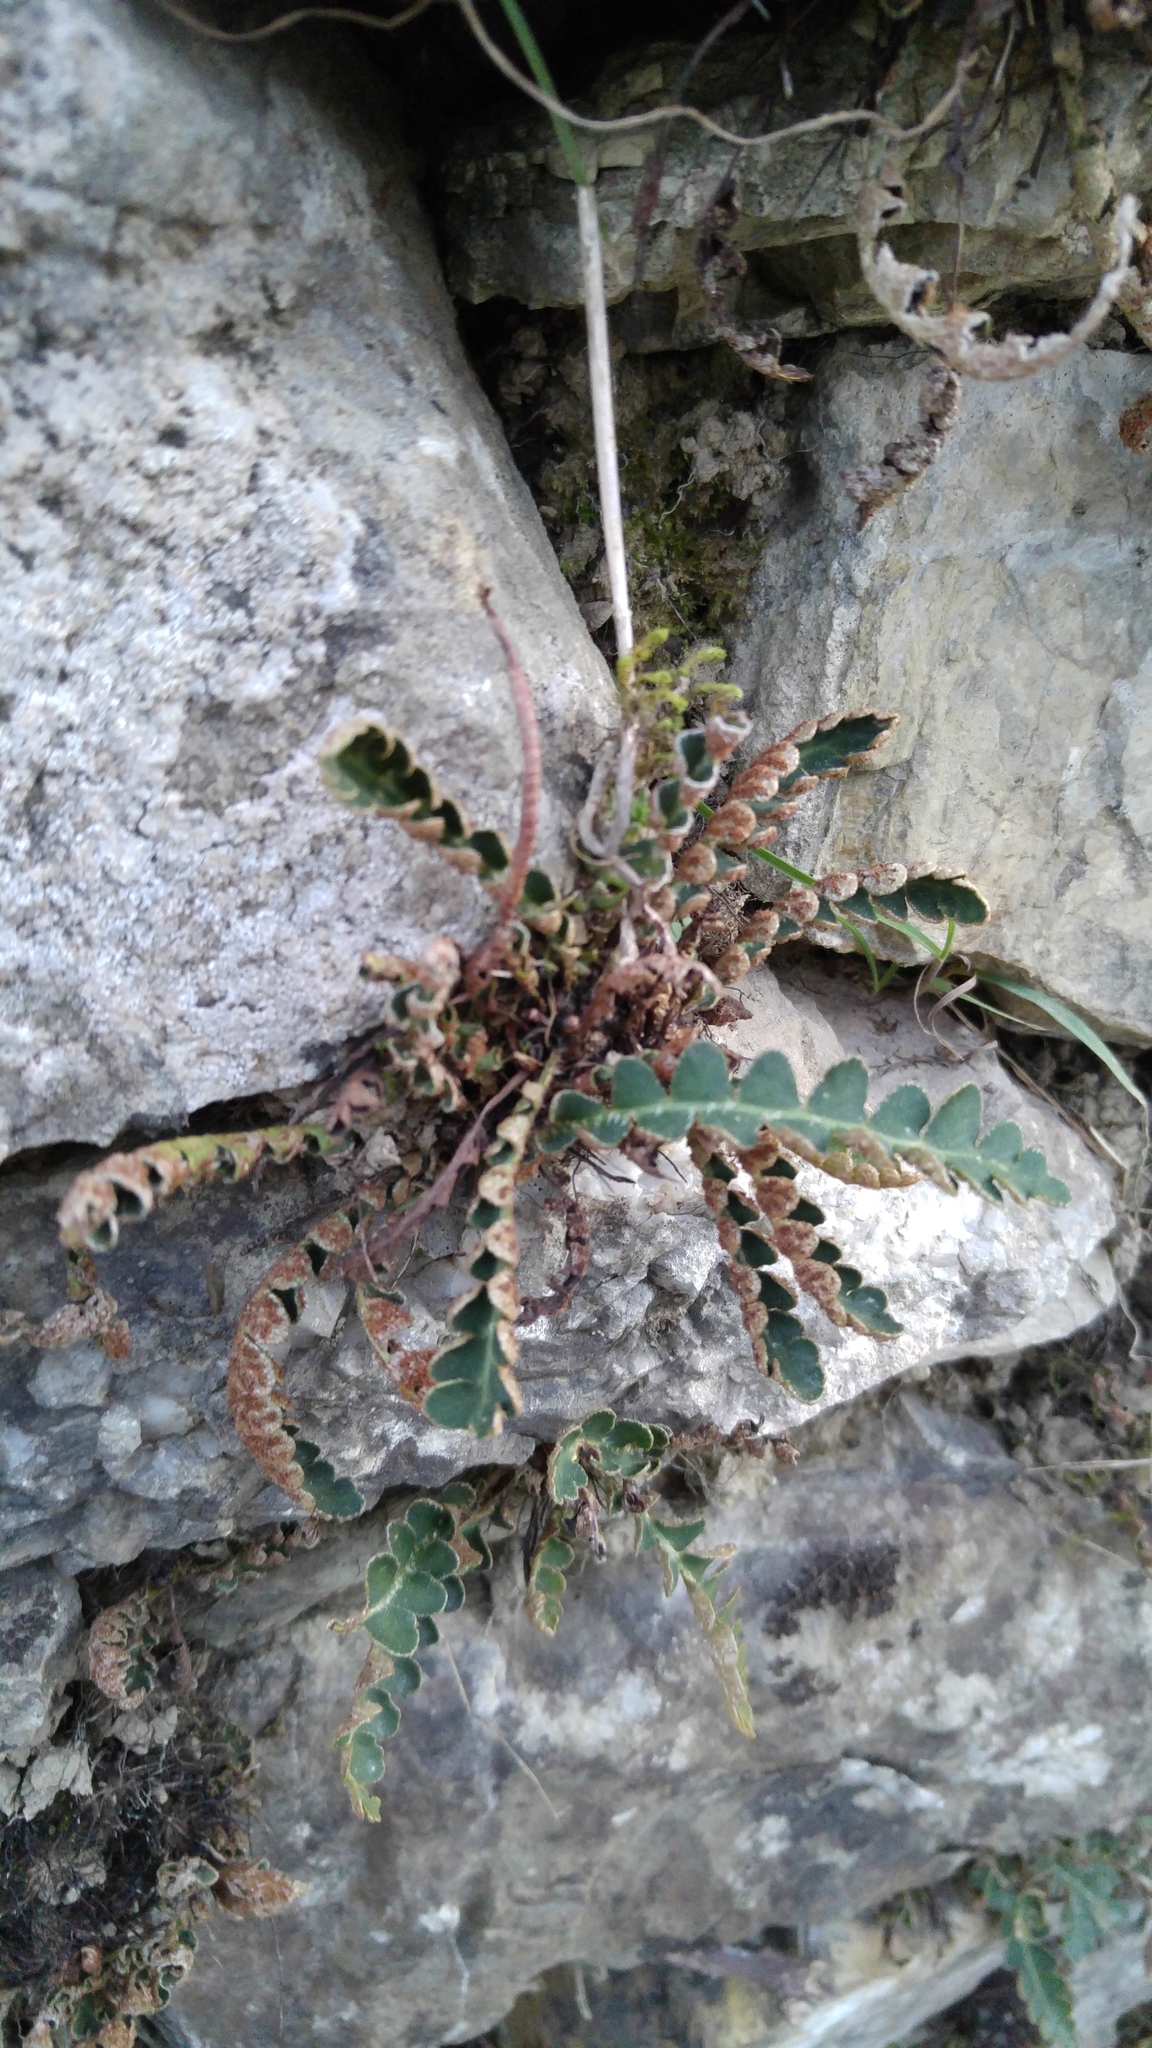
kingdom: Plantae
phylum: Tracheophyta
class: Polypodiopsida
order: Polypodiales
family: Aspleniaceae
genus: Asplenium
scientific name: Asplenium ceterach
